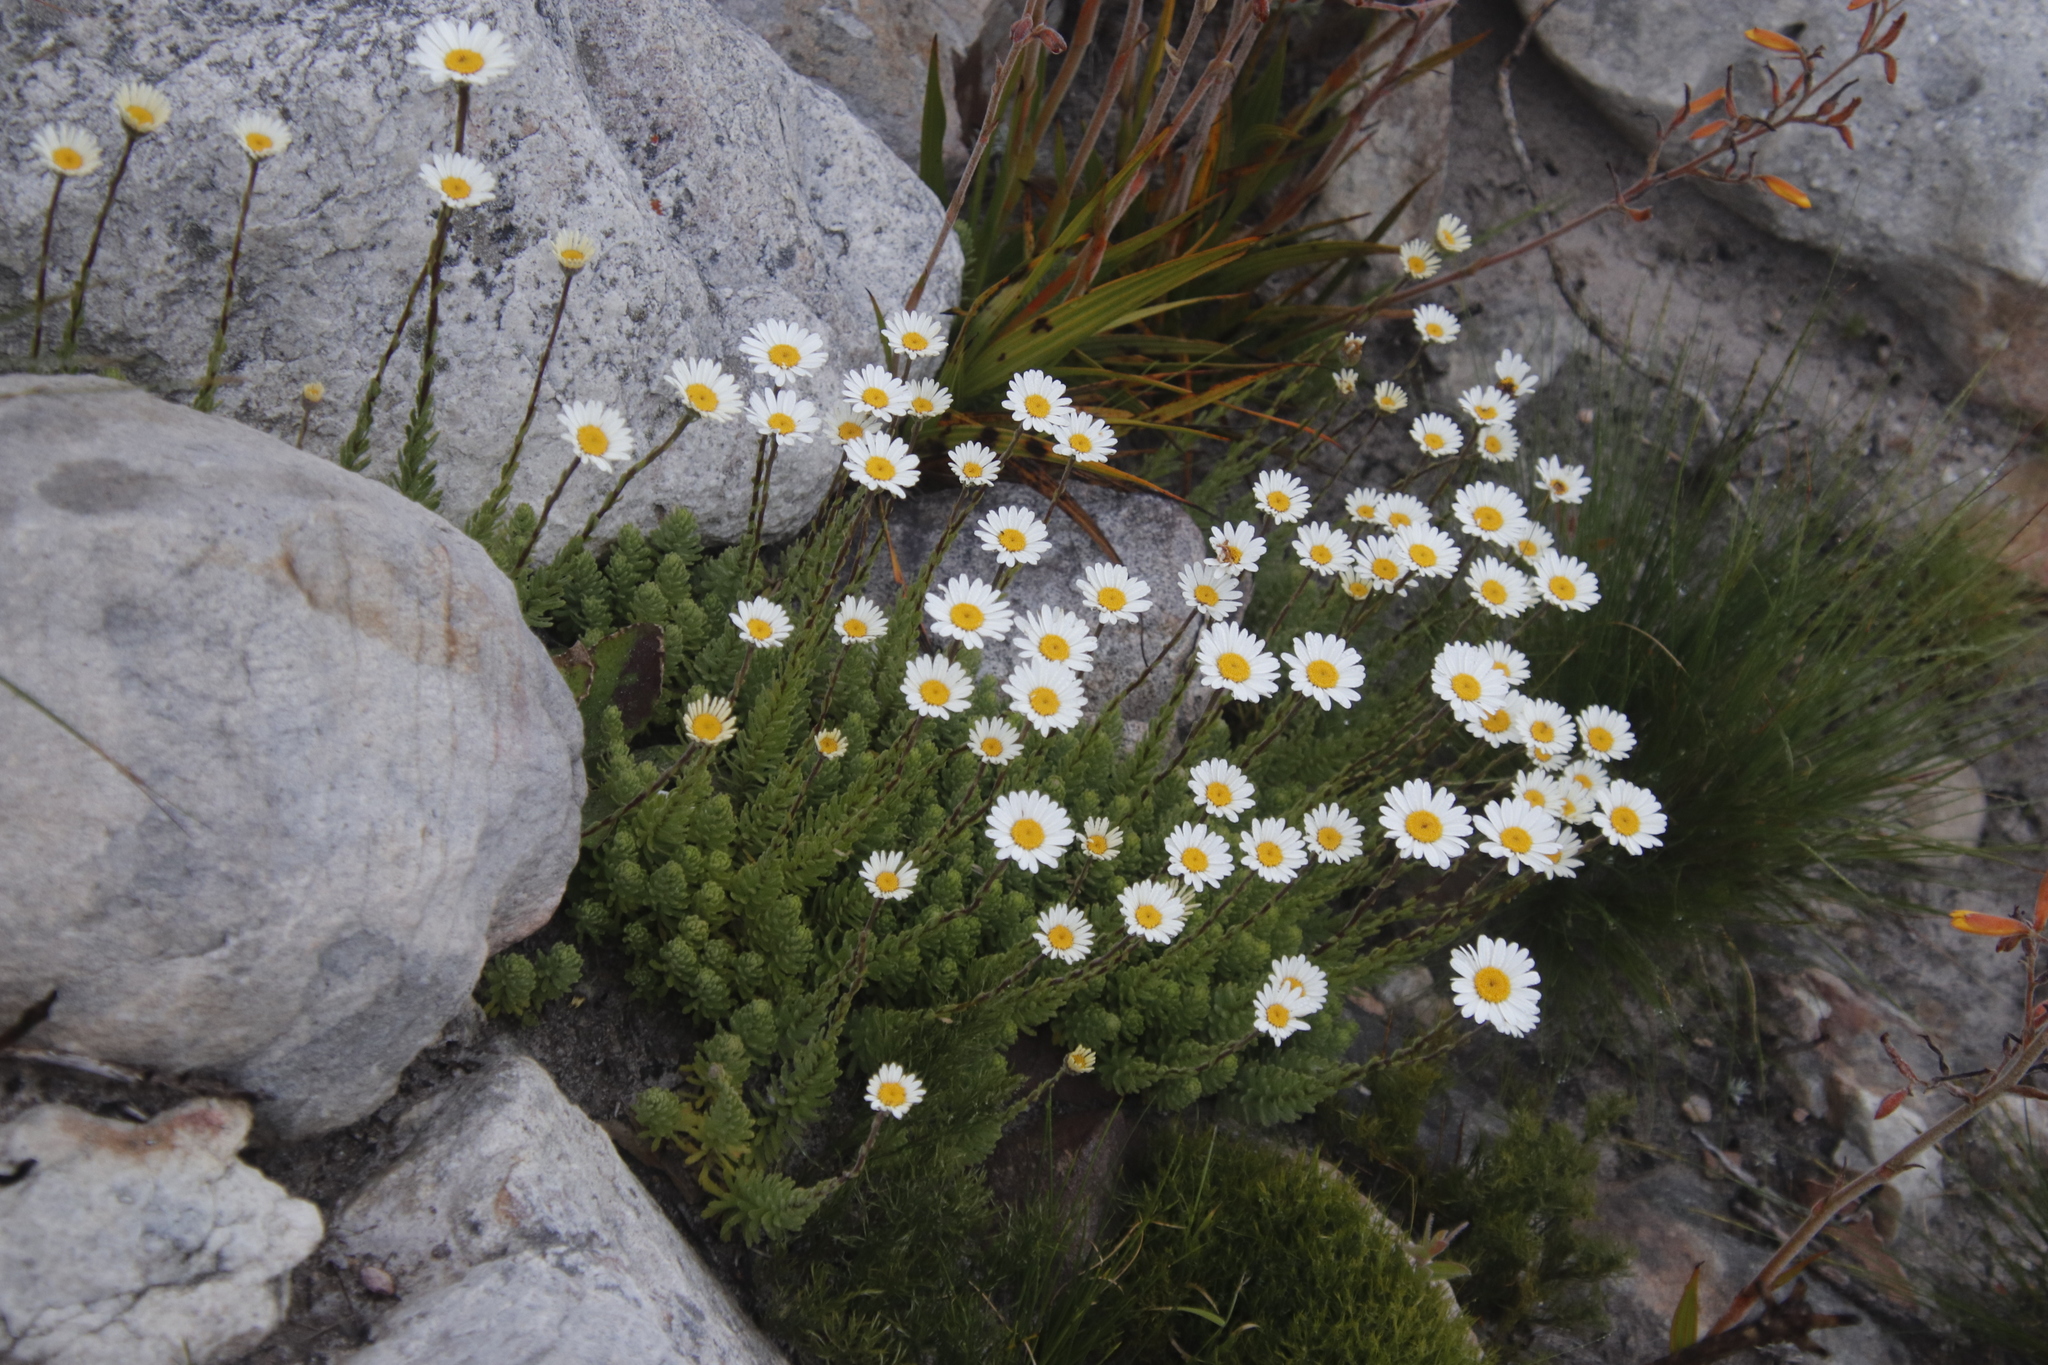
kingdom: Plantae
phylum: Tracheophyta
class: Magnoliopsida
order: Asterales
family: Asteraceae
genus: Osmitopsis
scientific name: Osmitopsis afra
